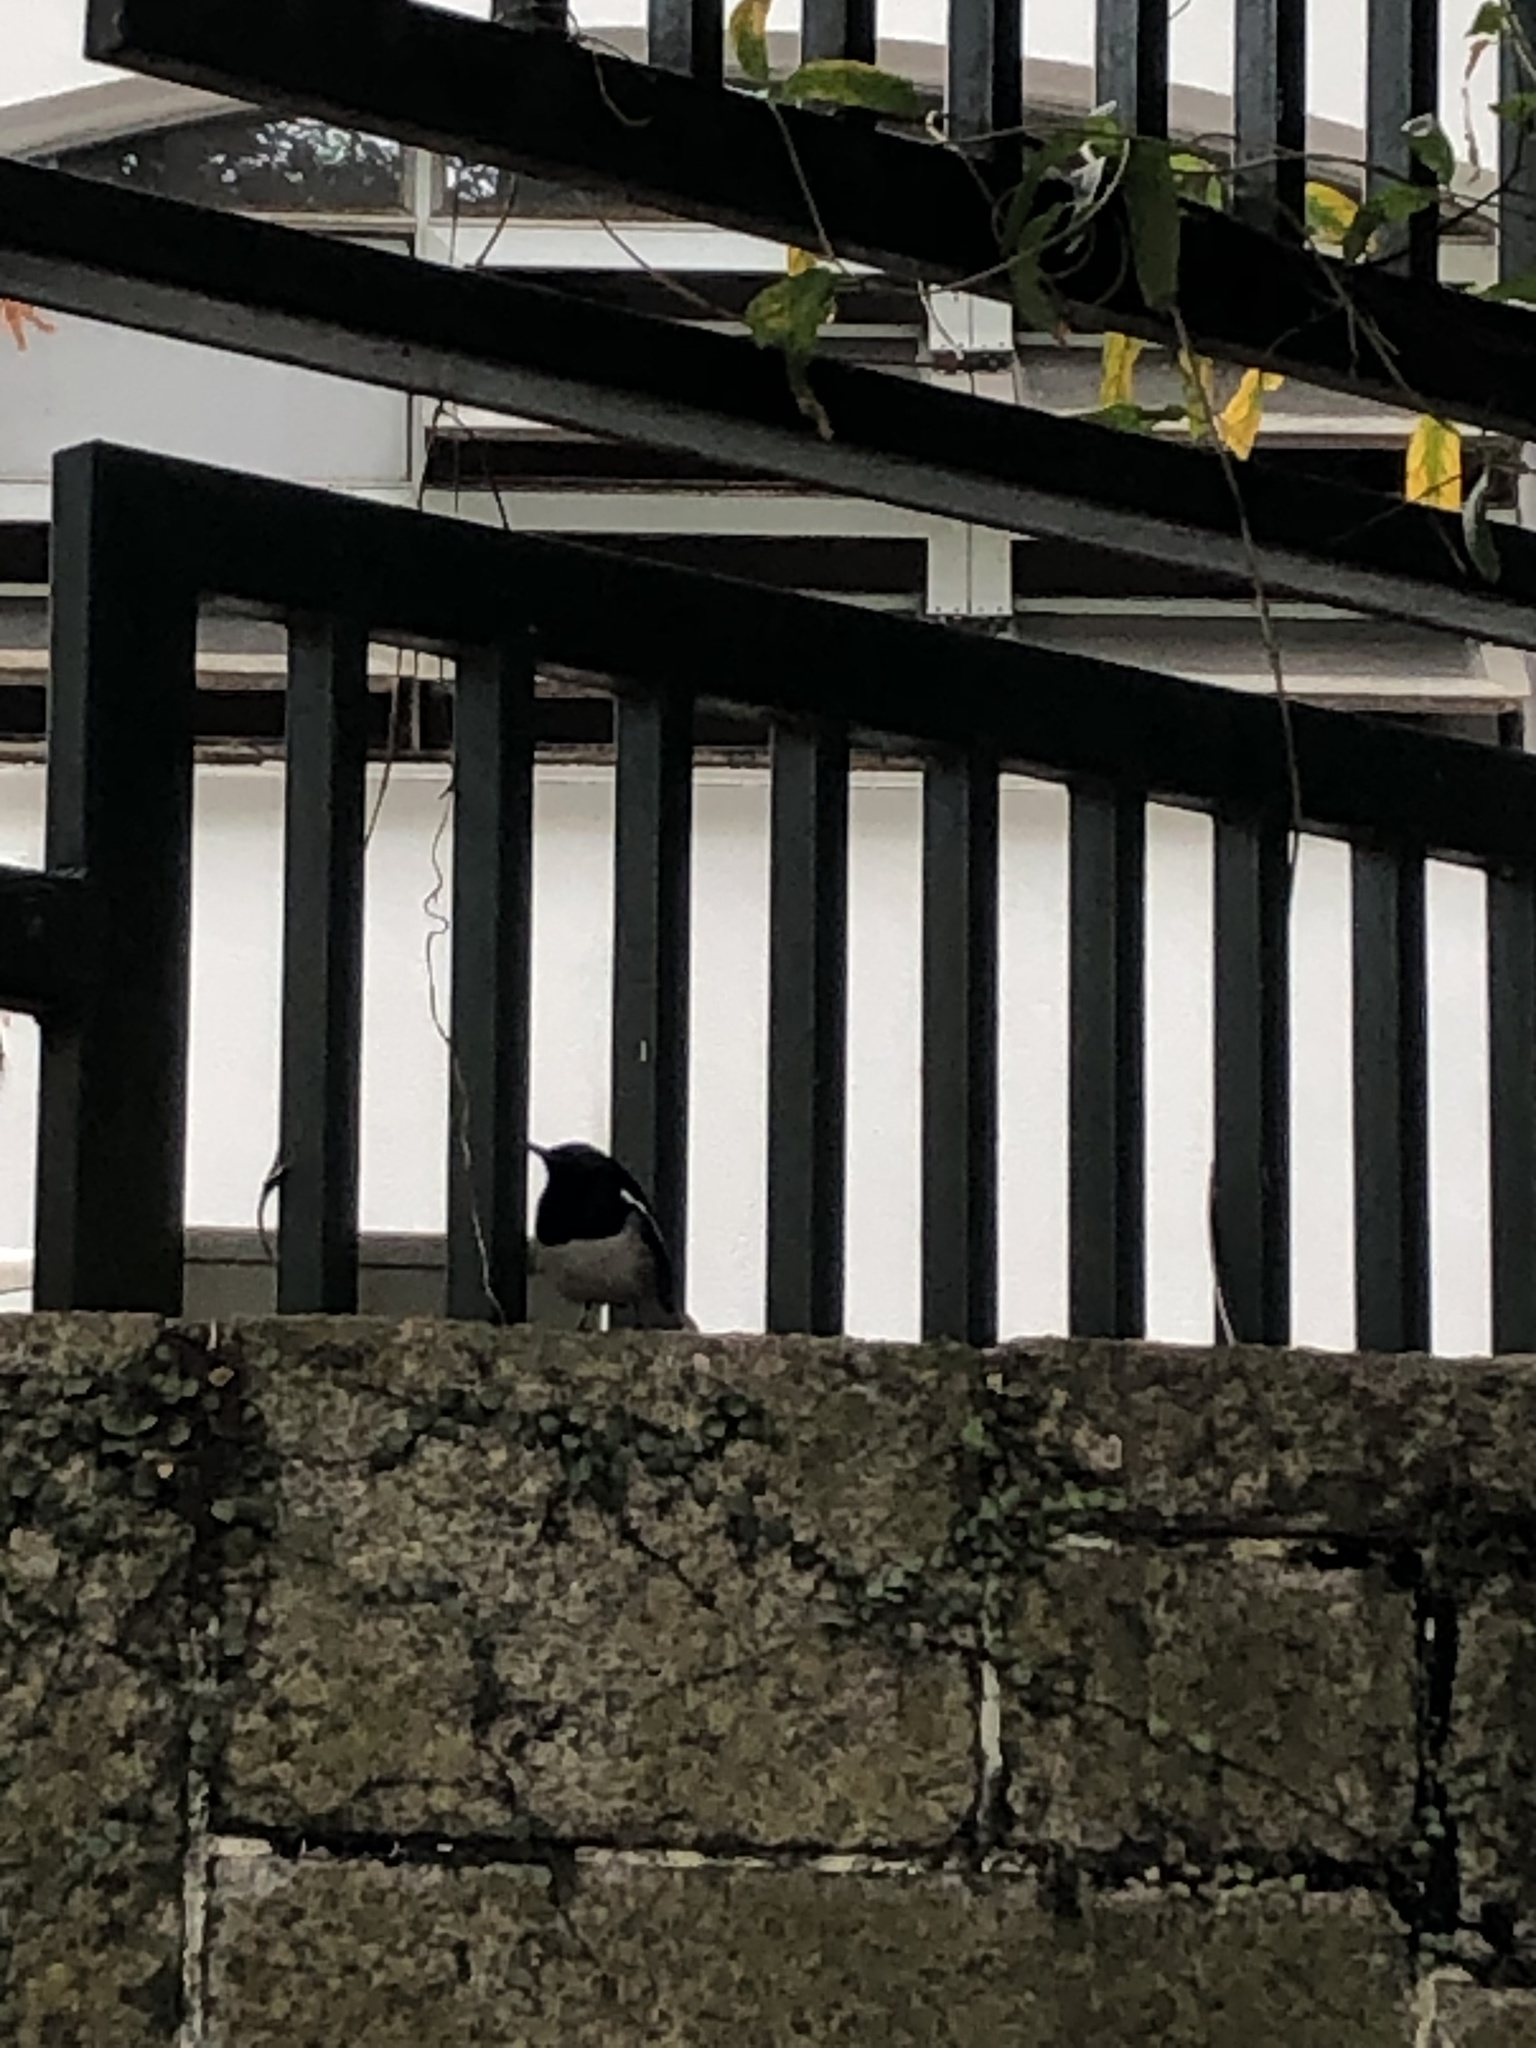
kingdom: Animalia
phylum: Chordata
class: Aves
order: Passeriformes
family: Muscicapidae
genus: Copsychus
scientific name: Copsychus saularis
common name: Oriental magpie-robin
